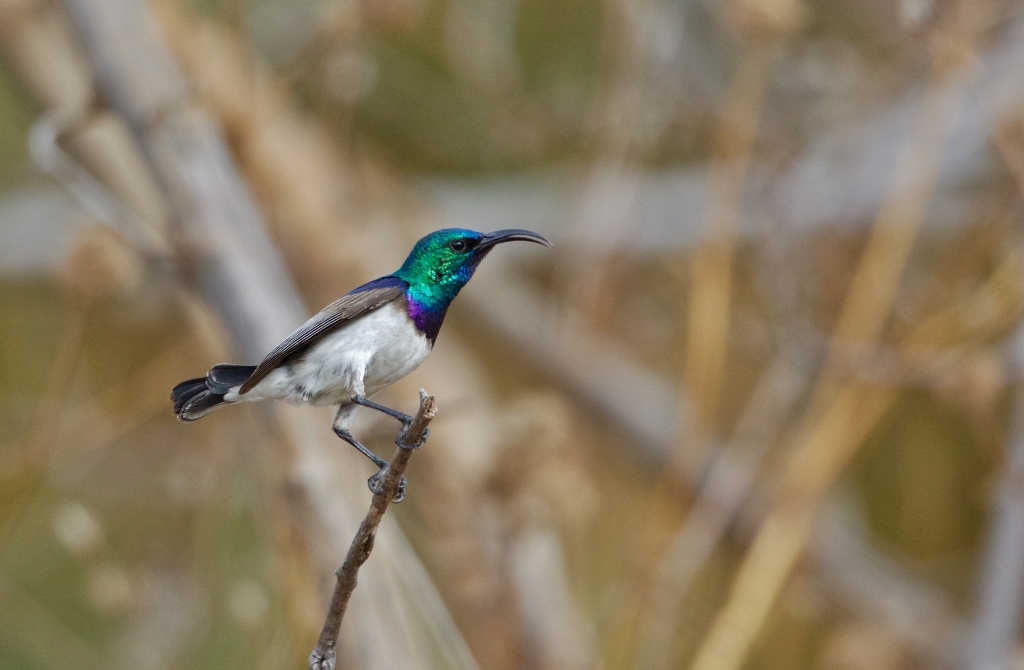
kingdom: Animalia
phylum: Chordata
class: Aves
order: Passeriformes
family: Nectariniidae
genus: Cinnyris
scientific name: Cinnyris talatala
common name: White-bellied sunbird
